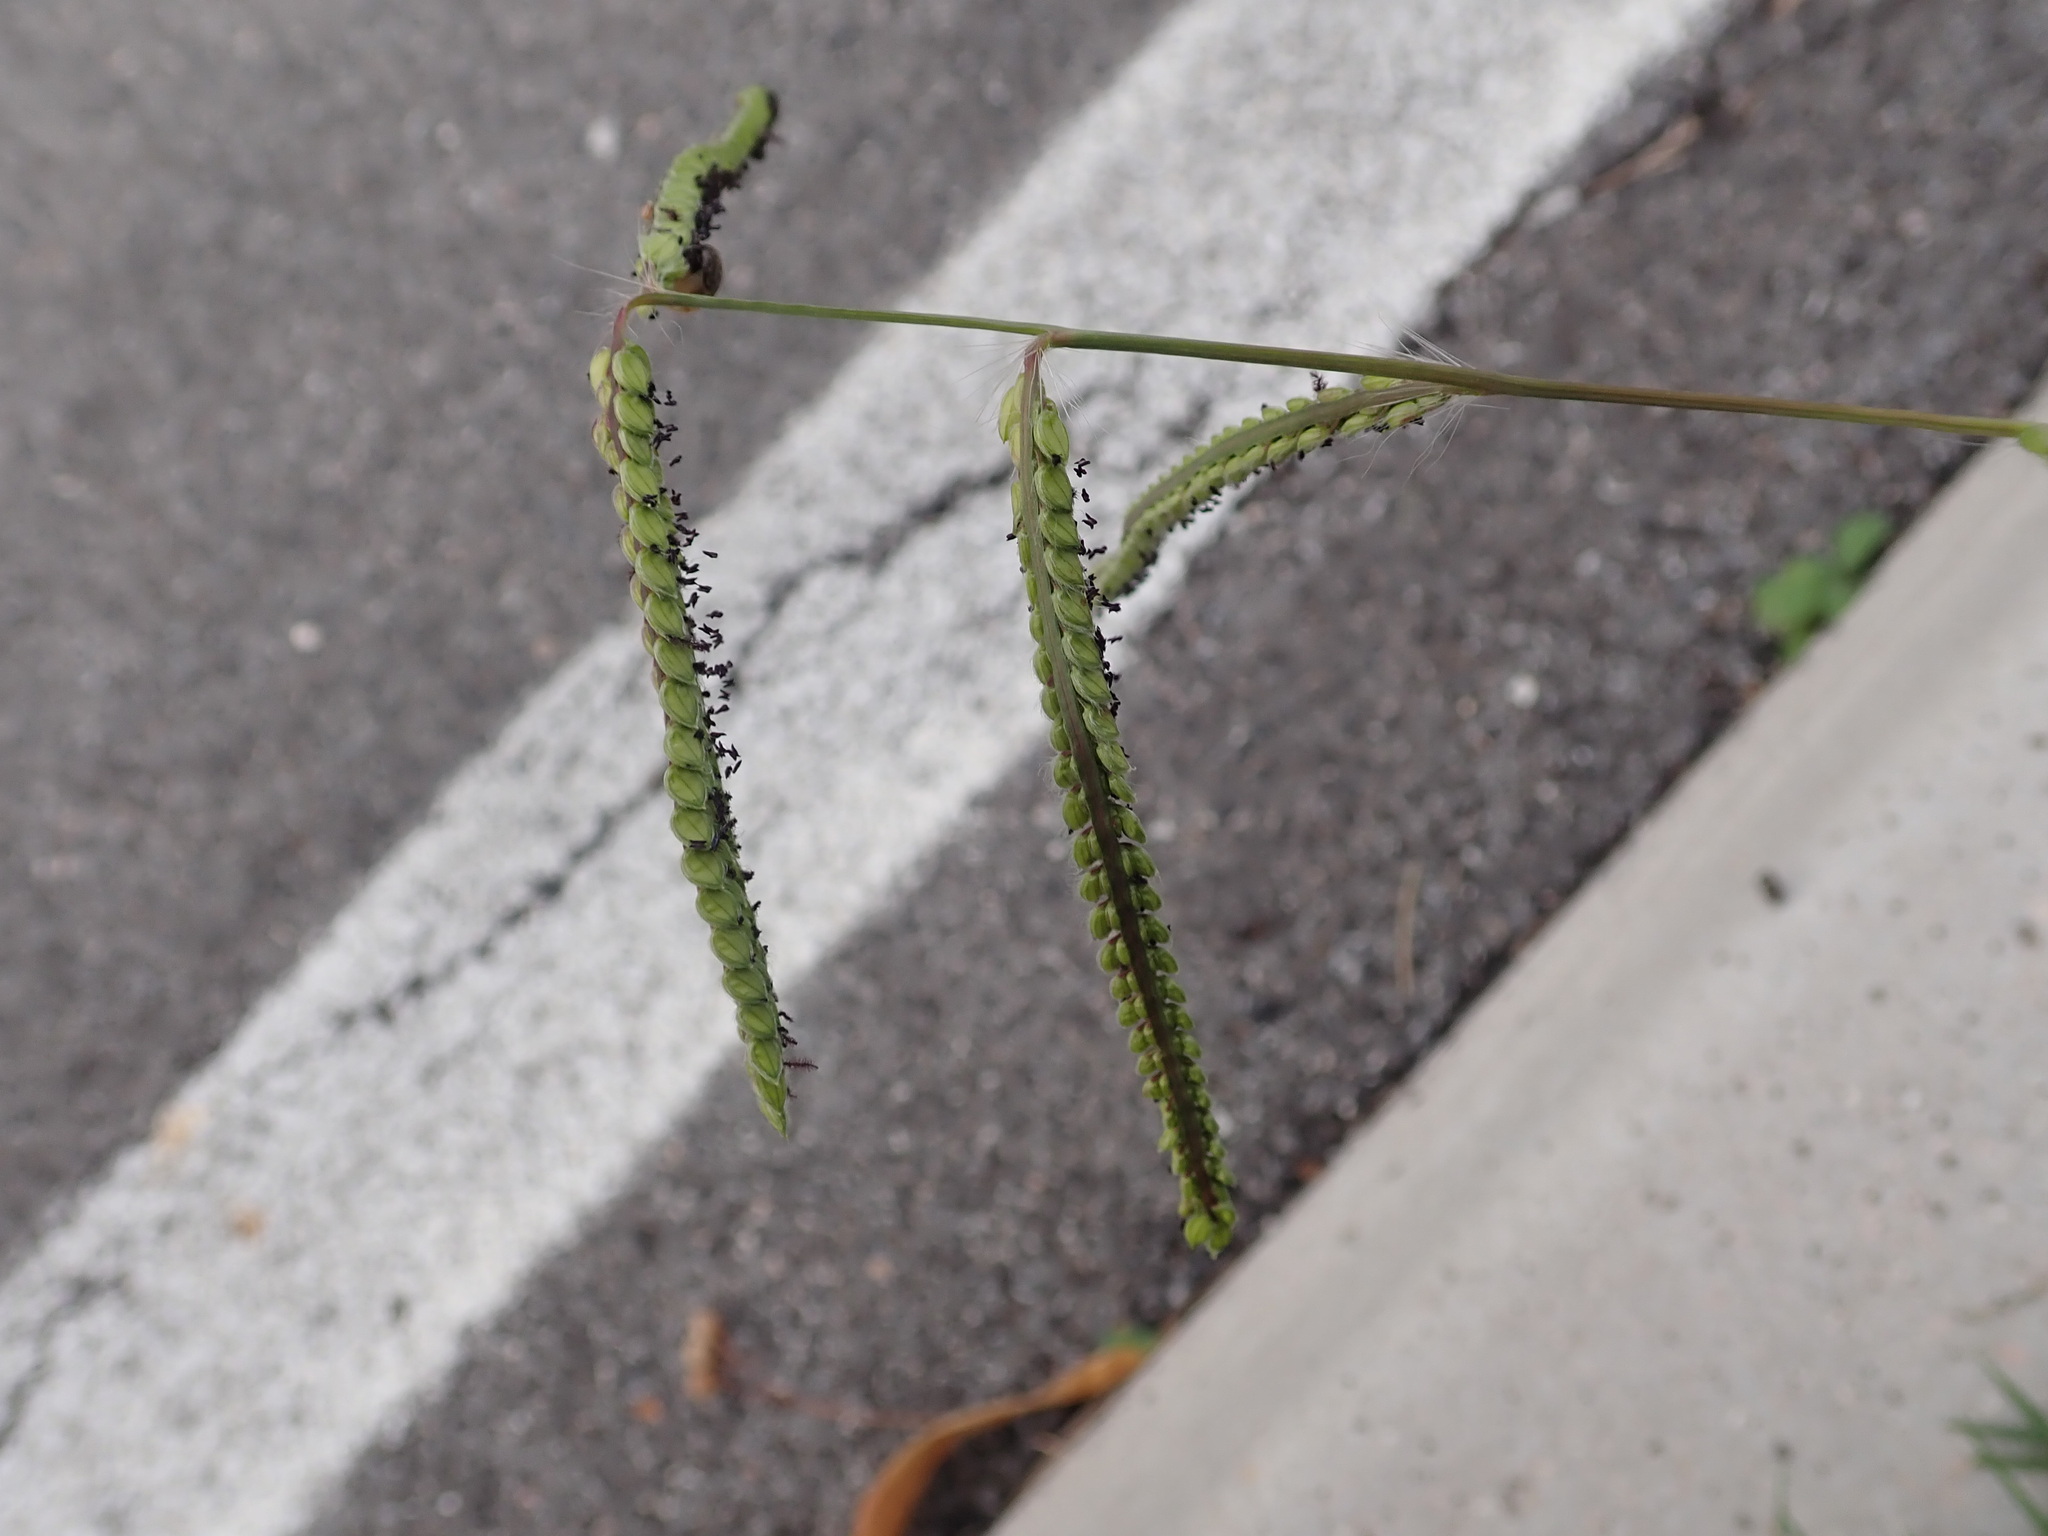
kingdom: Plantae
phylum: Tracheophyta
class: Liliopsida
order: Poales
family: Poaceae
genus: Paspalum
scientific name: Paspalum dilatatum
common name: Dallisgrass
